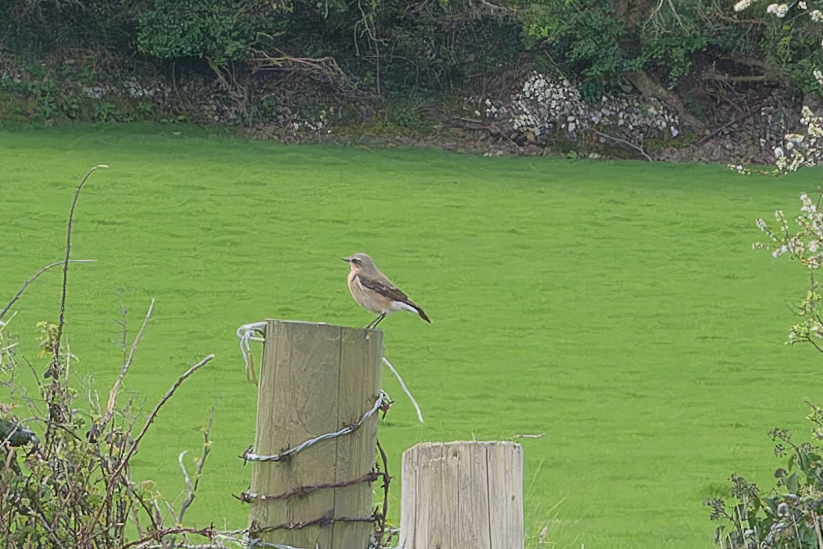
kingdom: Animalia
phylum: Chordata
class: Aves
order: Passeriformes
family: Muscicapidae
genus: Oenanthe
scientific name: Oenanthe oenanthe
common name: Northern wheatear
